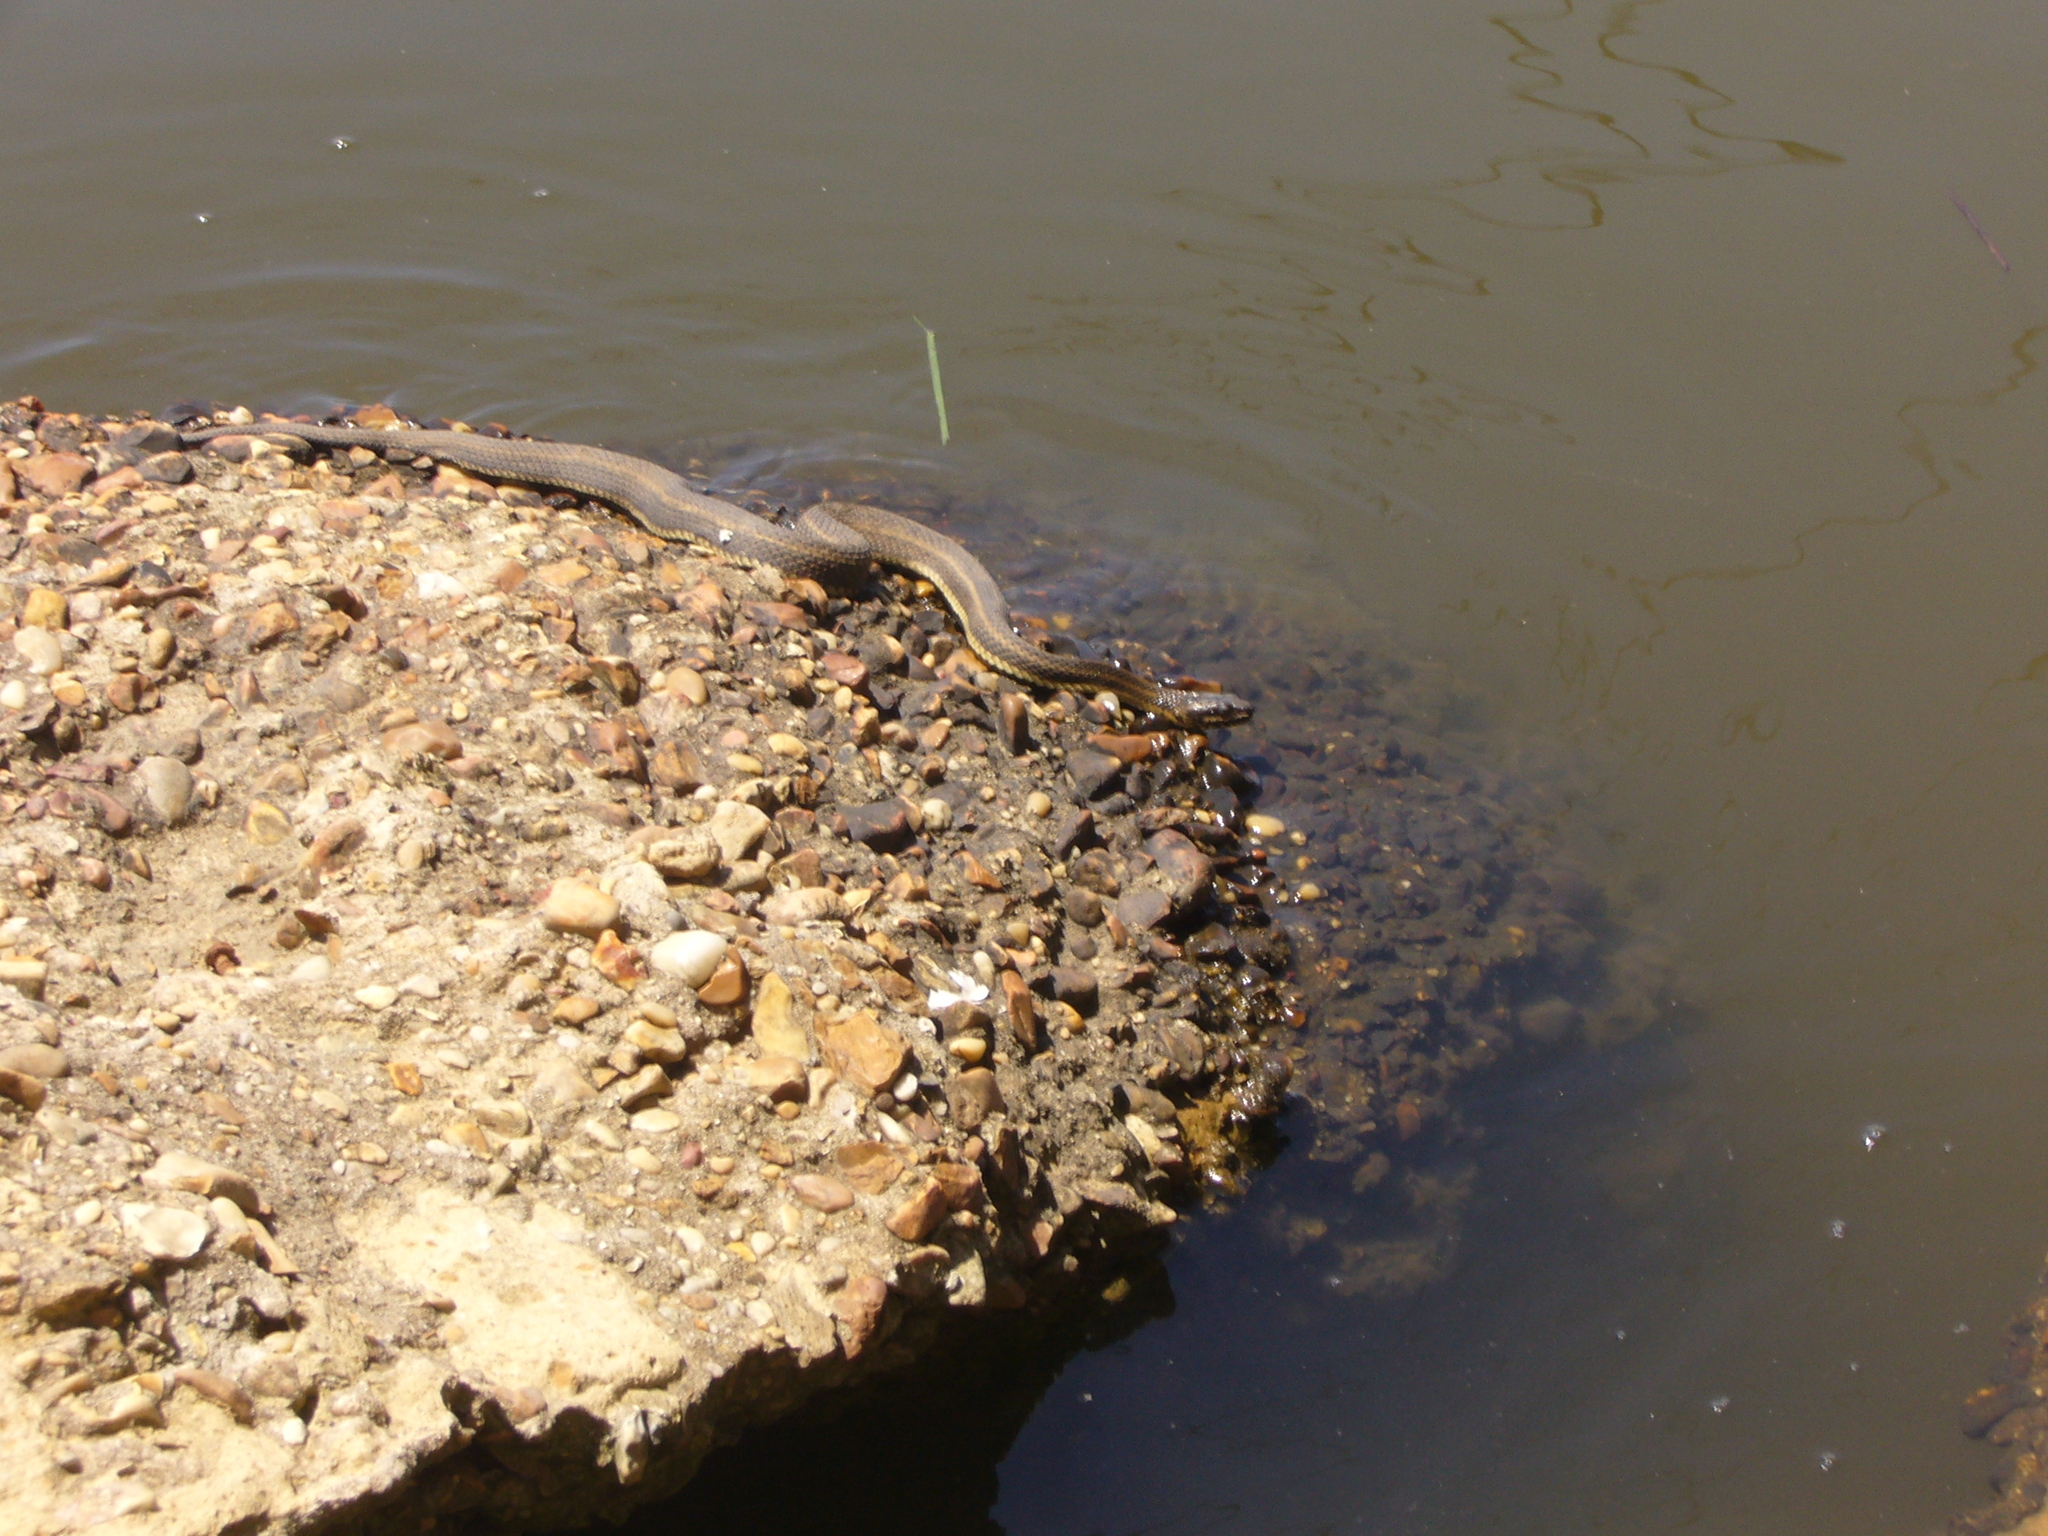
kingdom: Animalia
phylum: Chordata
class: Squamata
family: Colubridae
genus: Nerodia
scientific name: Nerodia clarkii
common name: Atlantic saltmarsh snake
